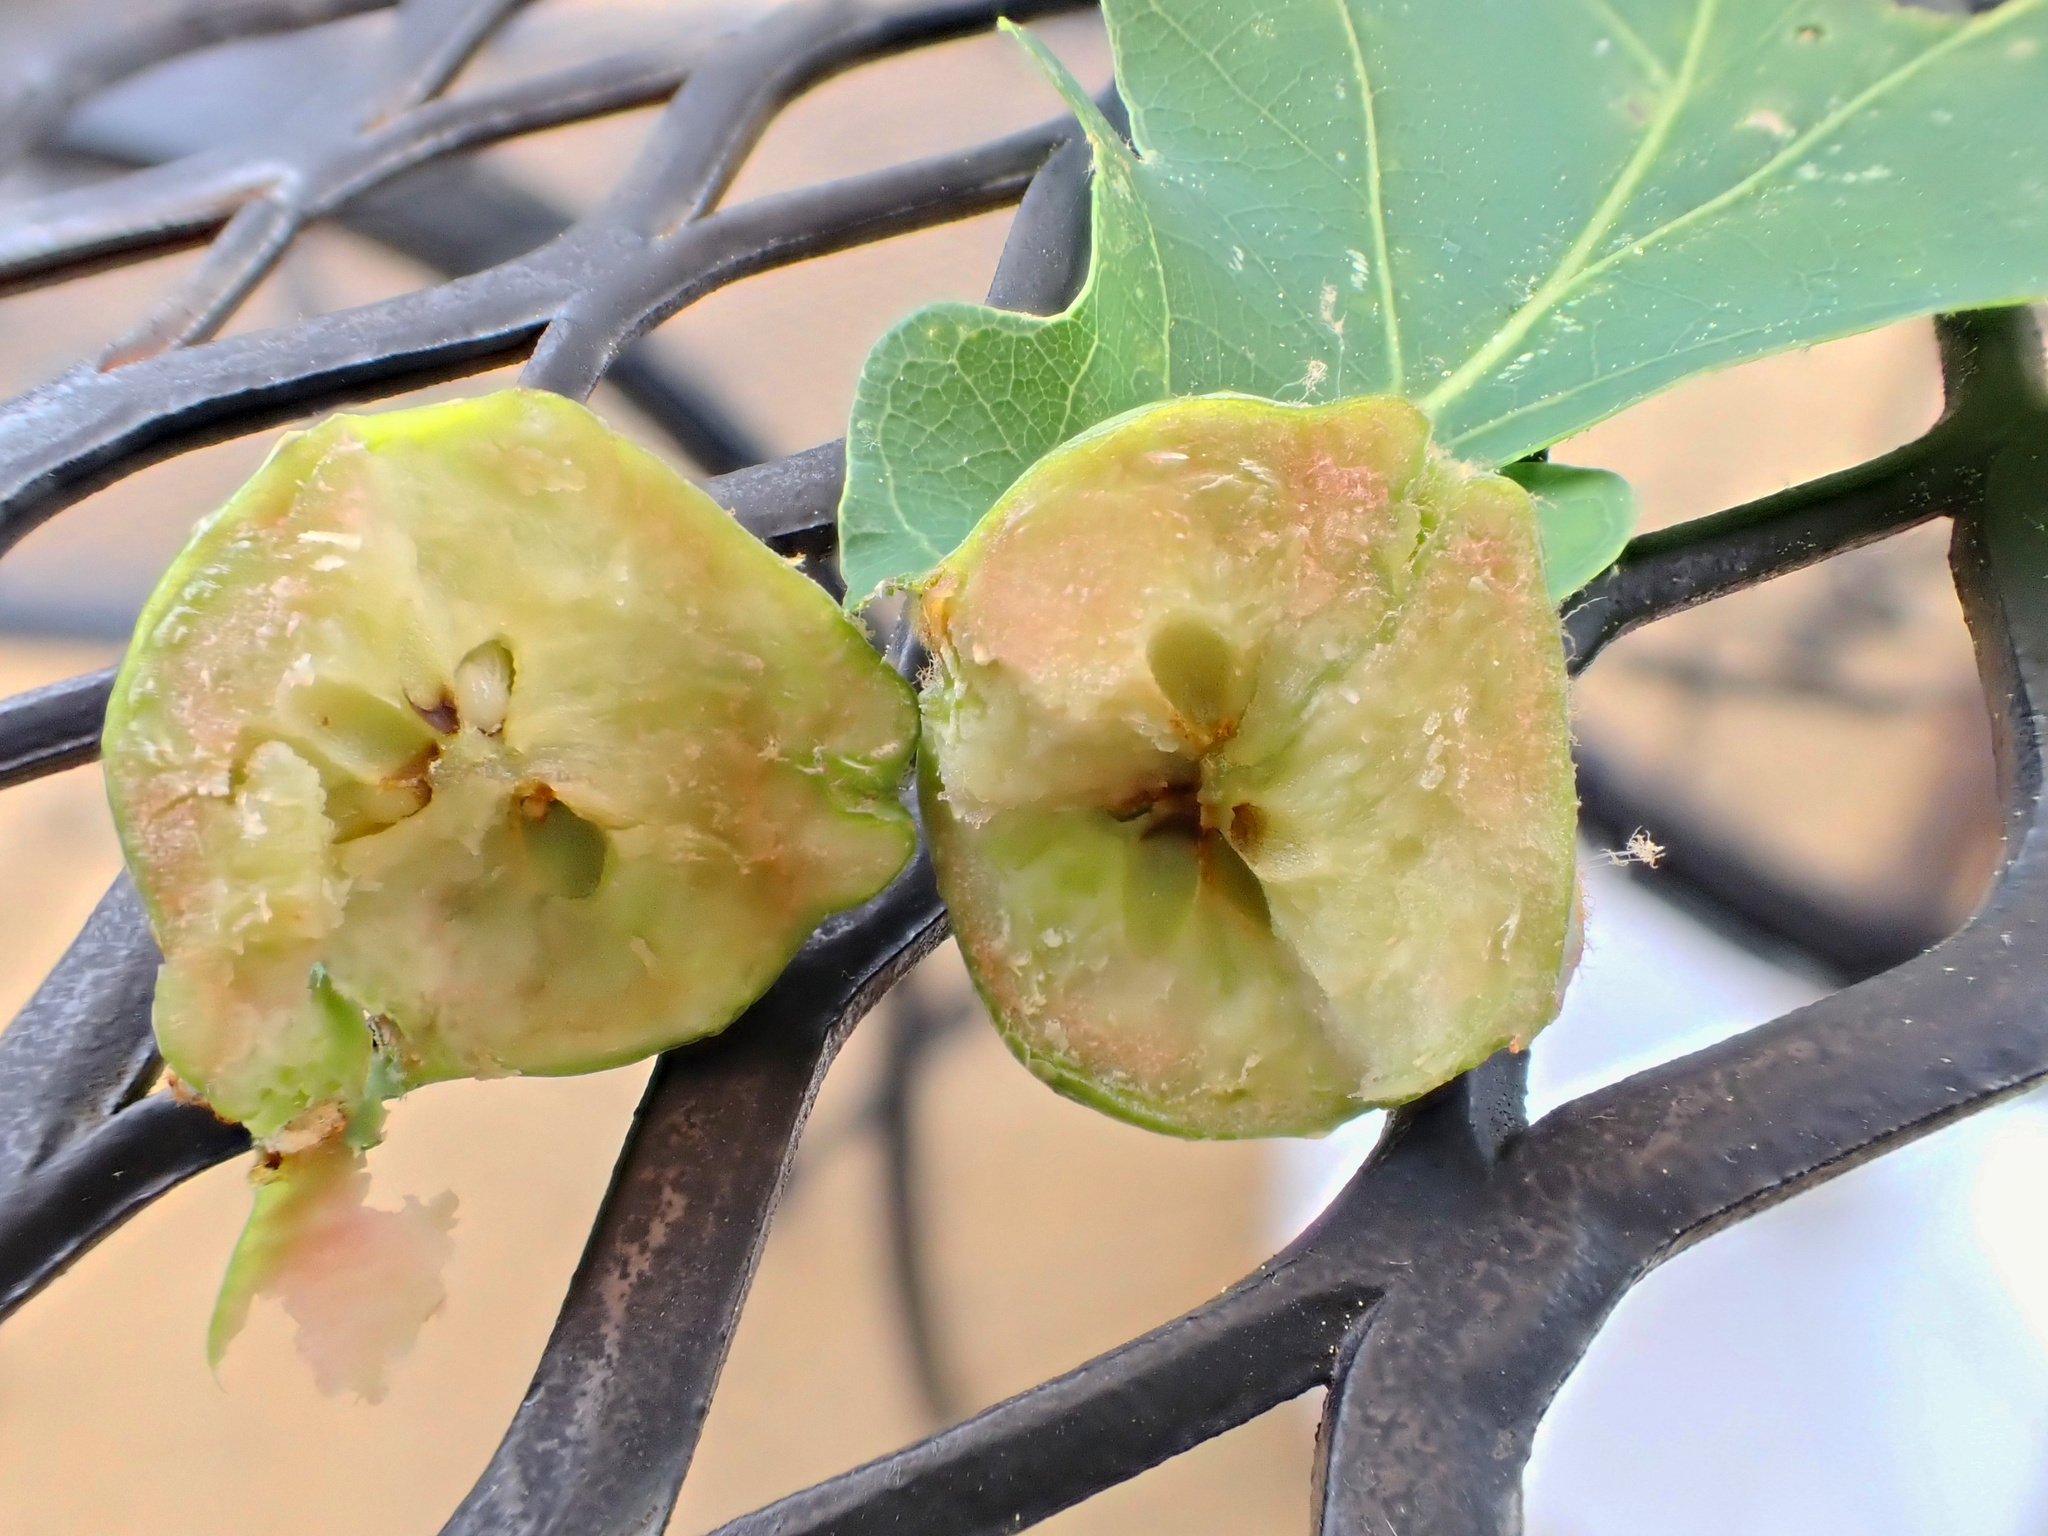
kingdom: Animalia
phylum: Arthropoda
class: Insecta
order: Hymenoptera
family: Cynipidae
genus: Andricus
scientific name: Andricus
